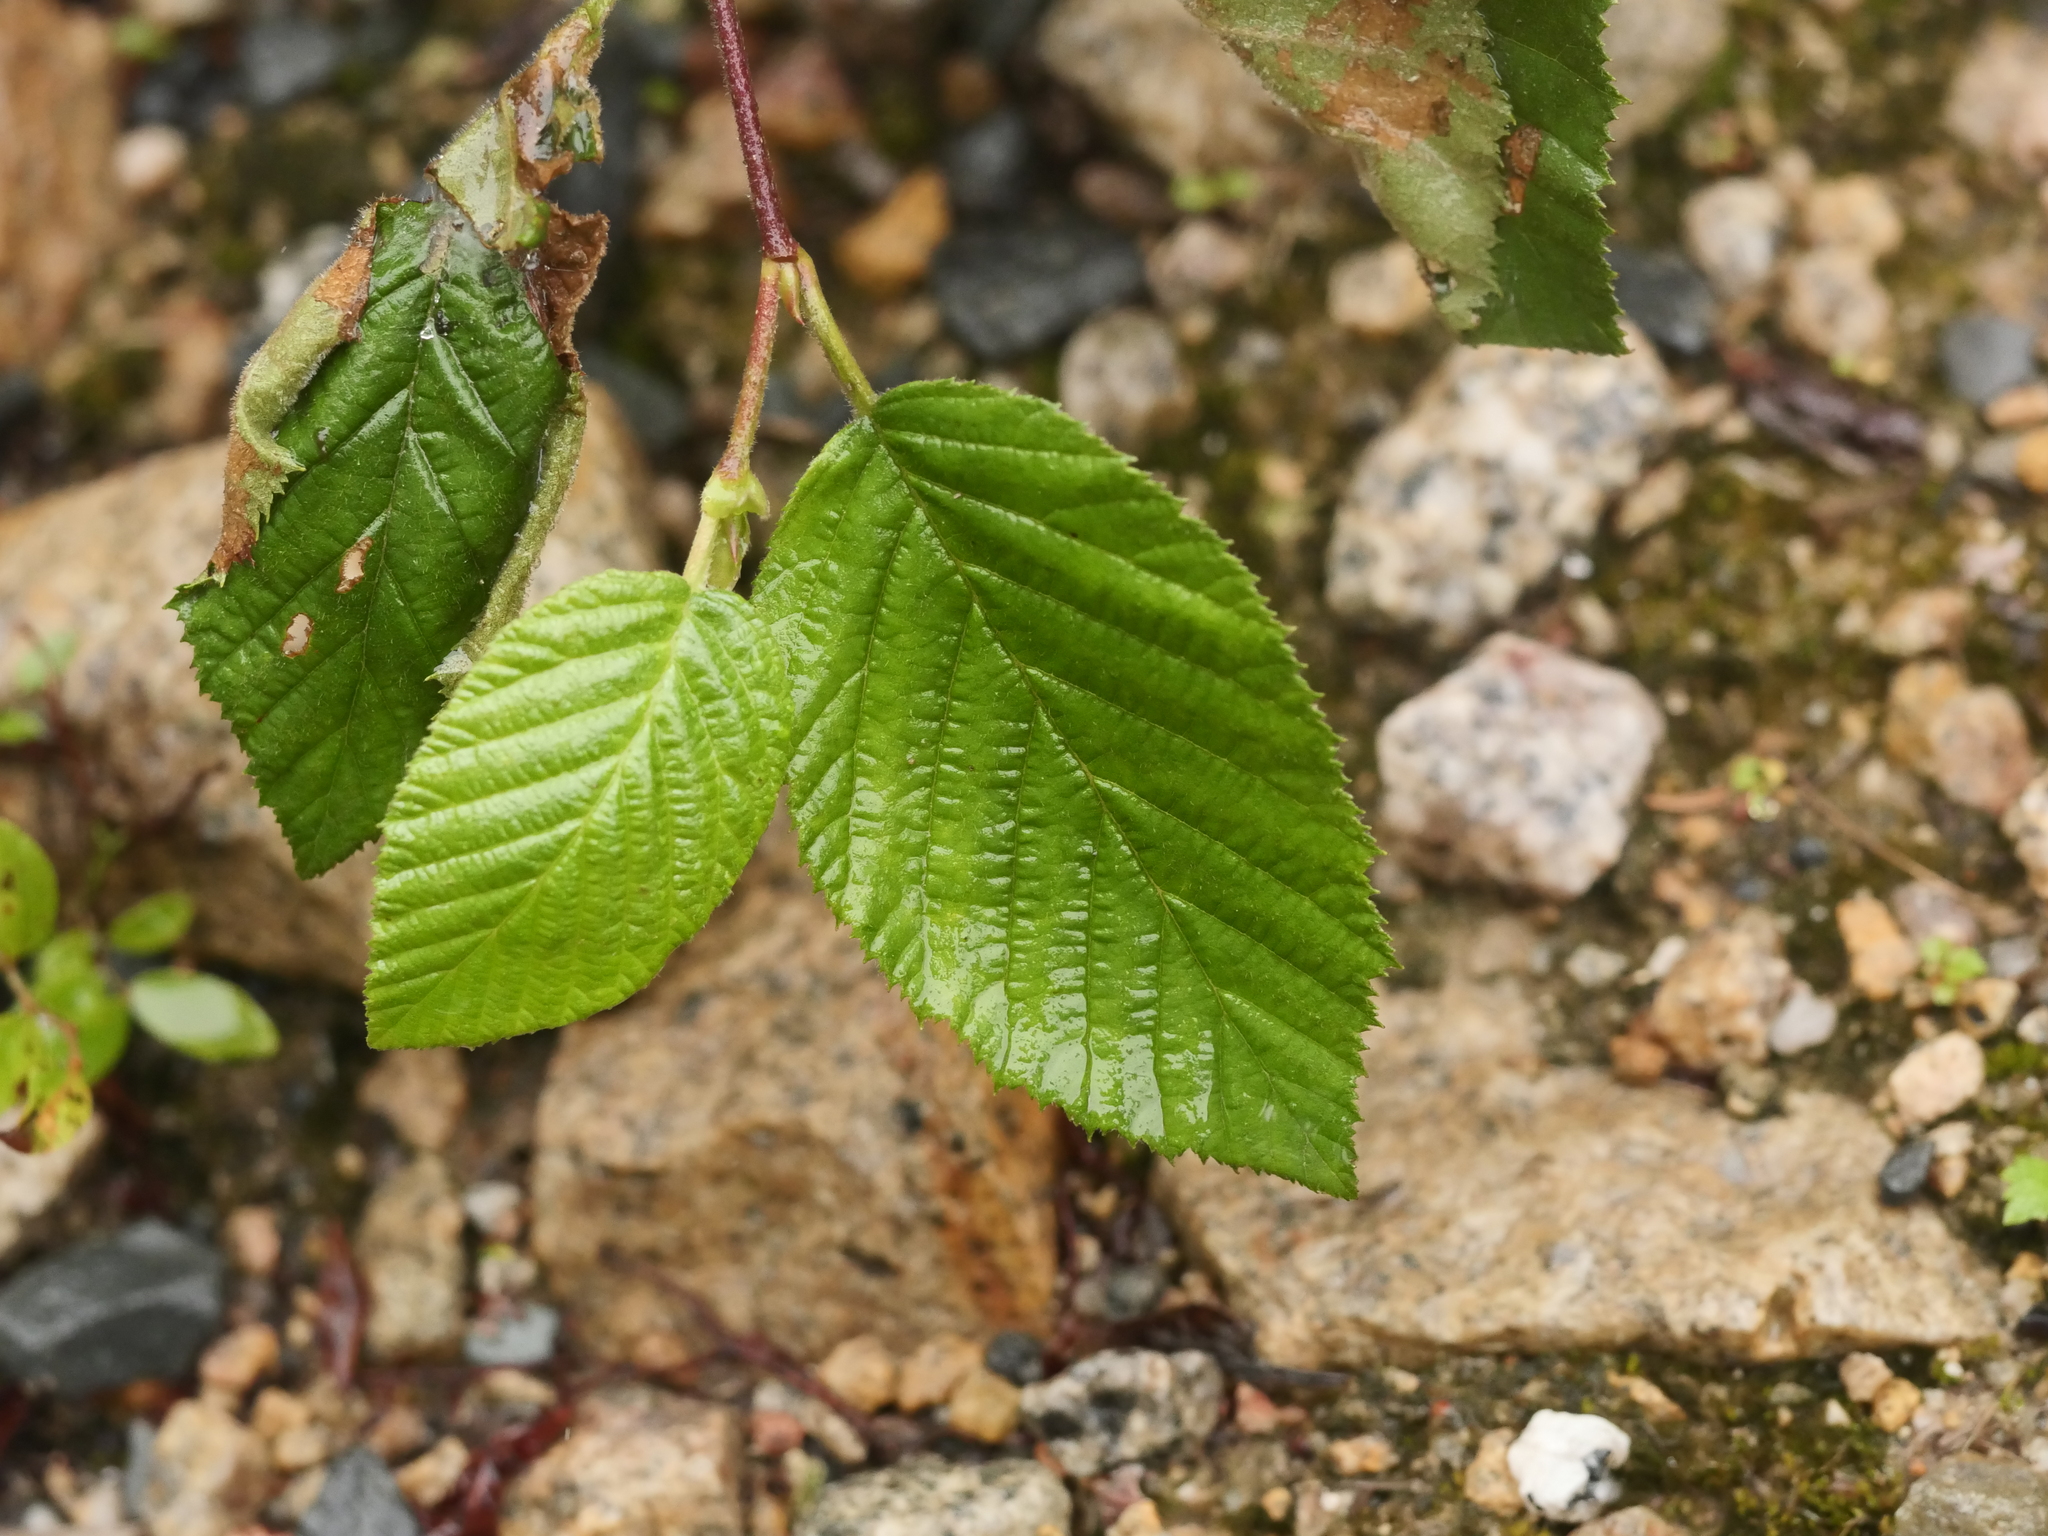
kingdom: Plantae
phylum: Tracheophyta
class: Magnoliopsida
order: Fagales
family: Betulaceae
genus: Alnus
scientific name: Alnus alnobetula
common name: Green alder
